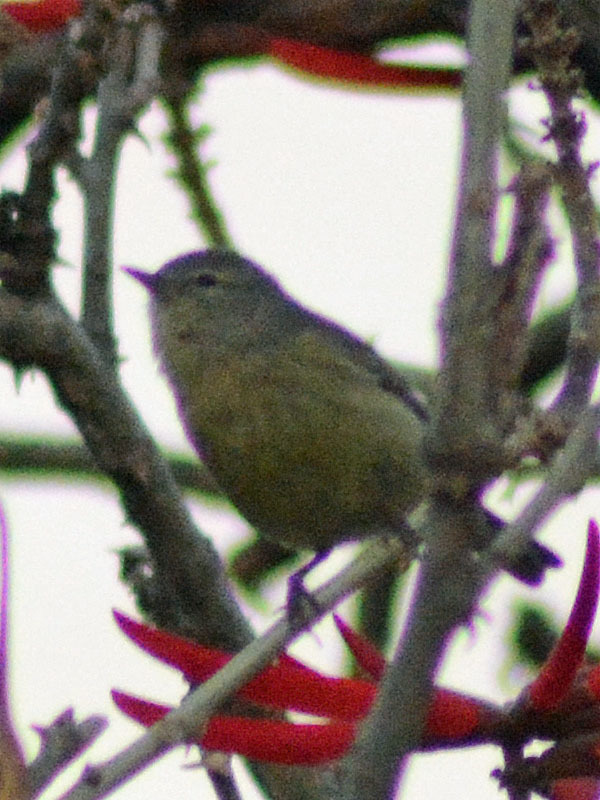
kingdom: Animalia
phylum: Chordata
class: Aves
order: Passeriformes
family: Parulidae
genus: Leiothlypis
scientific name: Leiothlypis celata
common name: Orange-crowned warbler
